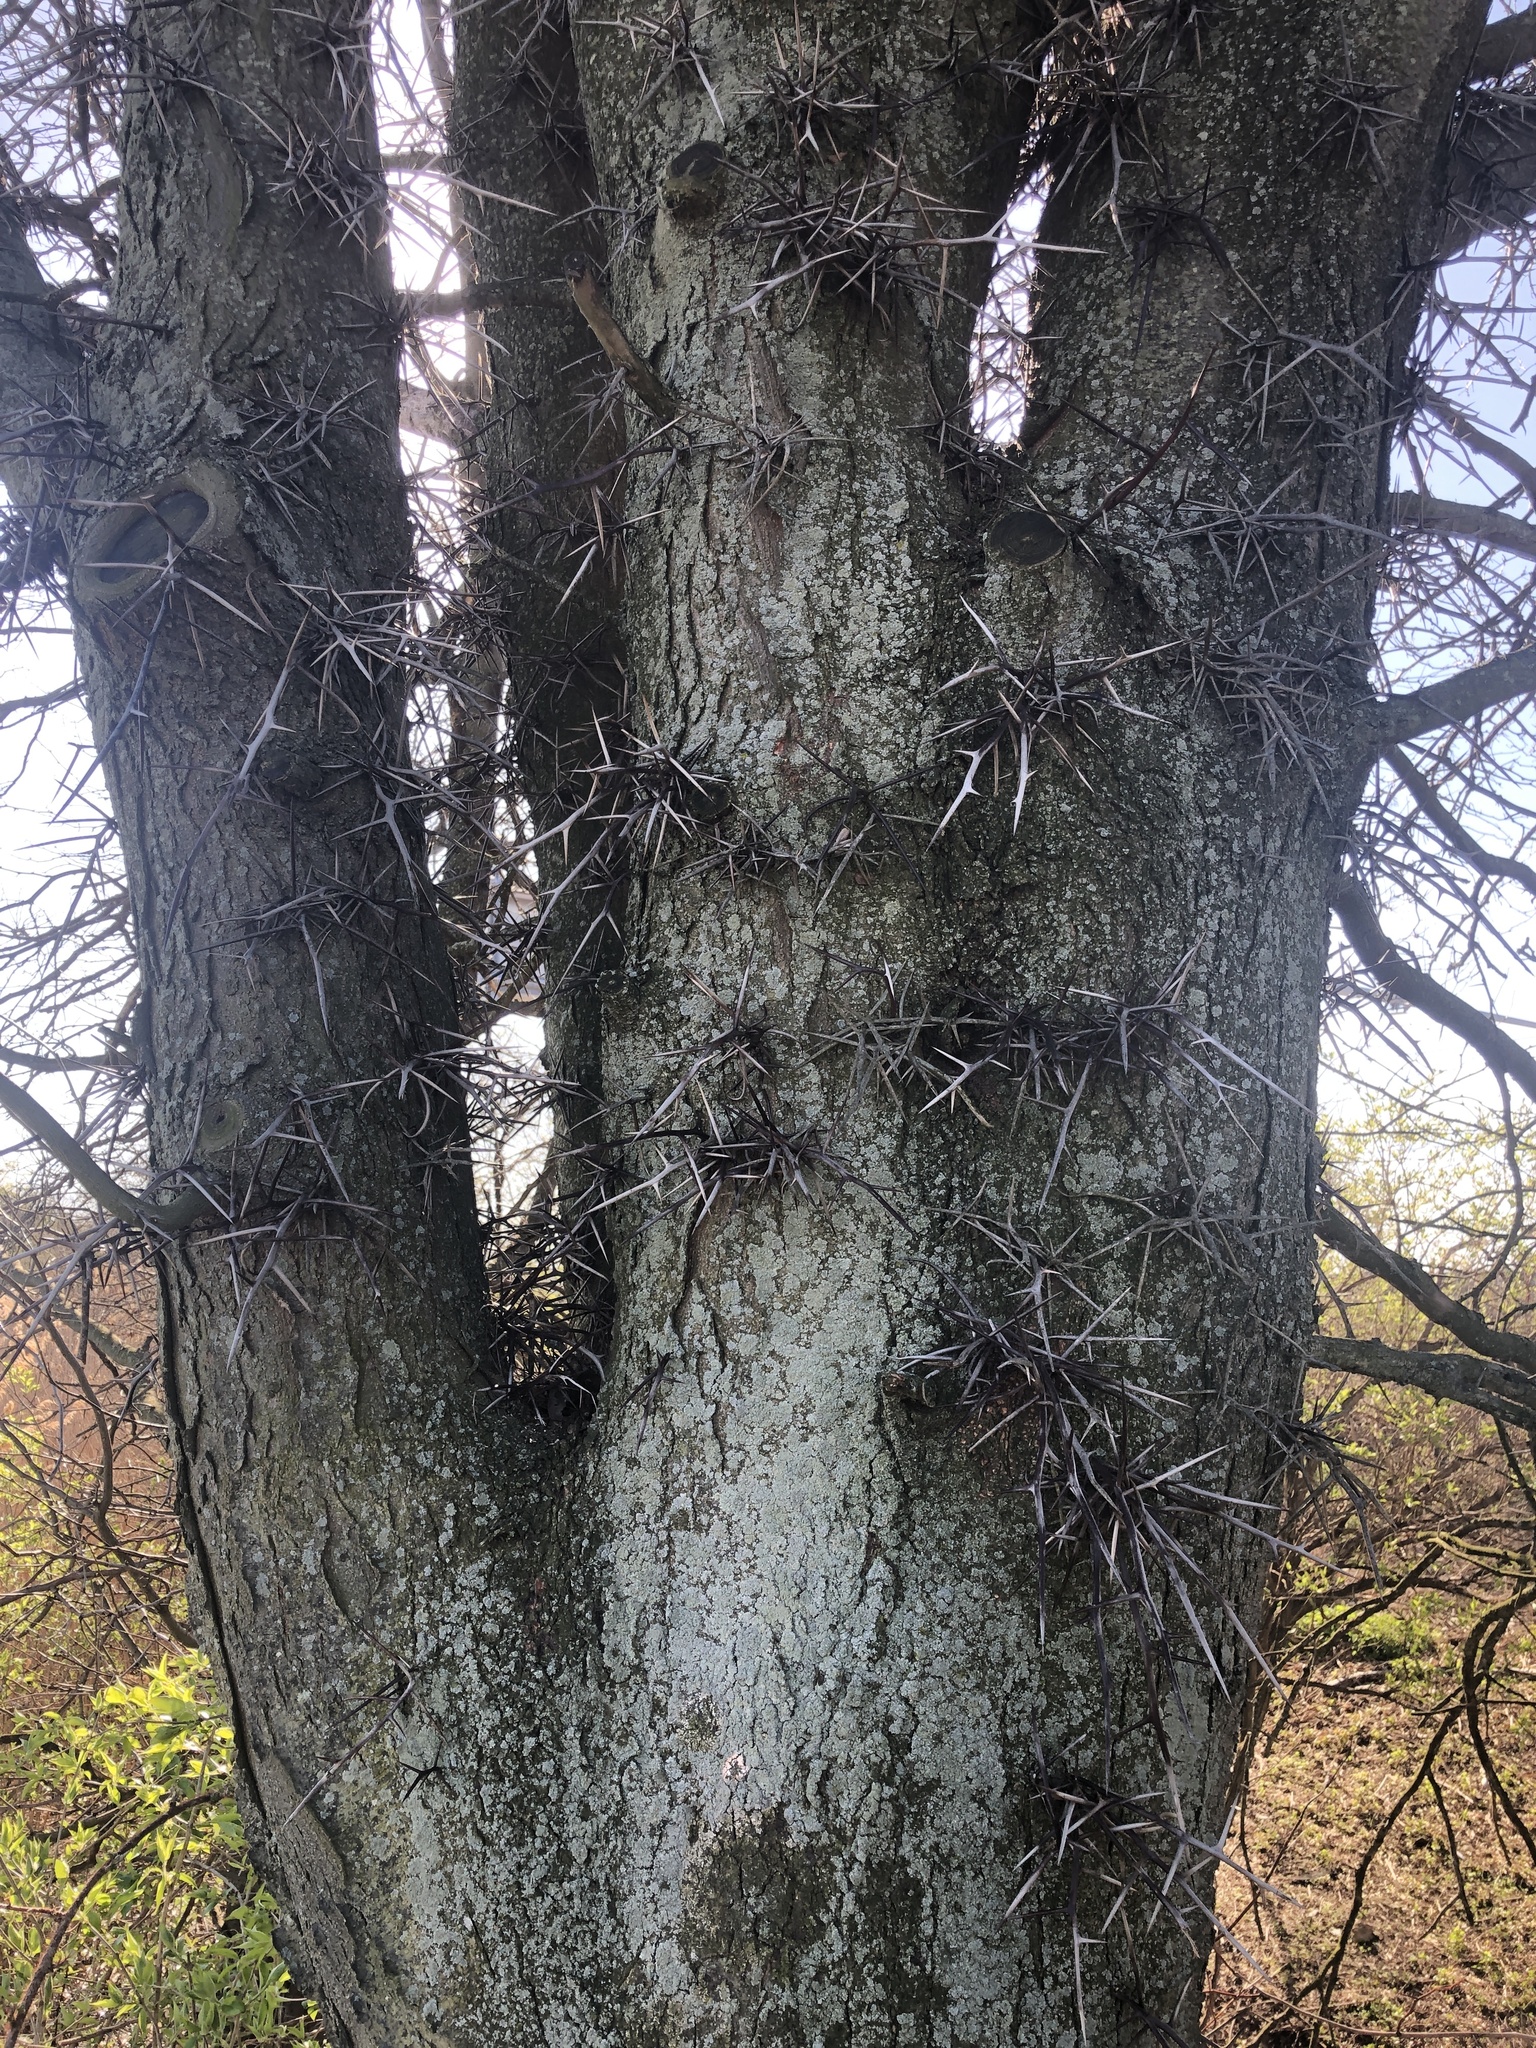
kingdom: Plantae
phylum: Tracheophyta
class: Magnoliopsida
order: Fabales
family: Fabaceae
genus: Gleditsia
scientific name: Gleditsia triacanthos
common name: Common honeylocust
